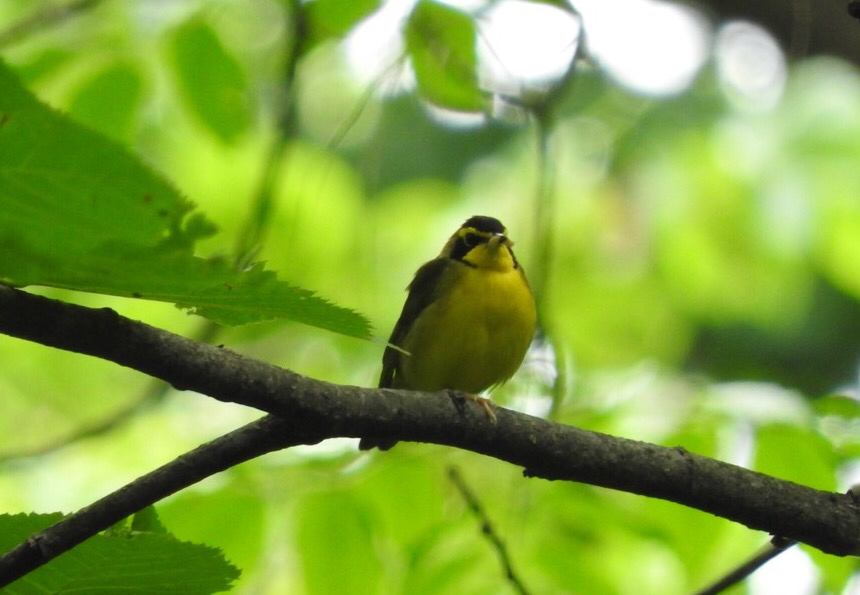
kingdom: Animalia
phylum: Chordata
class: Aves
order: Passeriformes
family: Parulidae
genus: Geothlypis
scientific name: Geothlypis formosa
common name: Kentucky warbler
